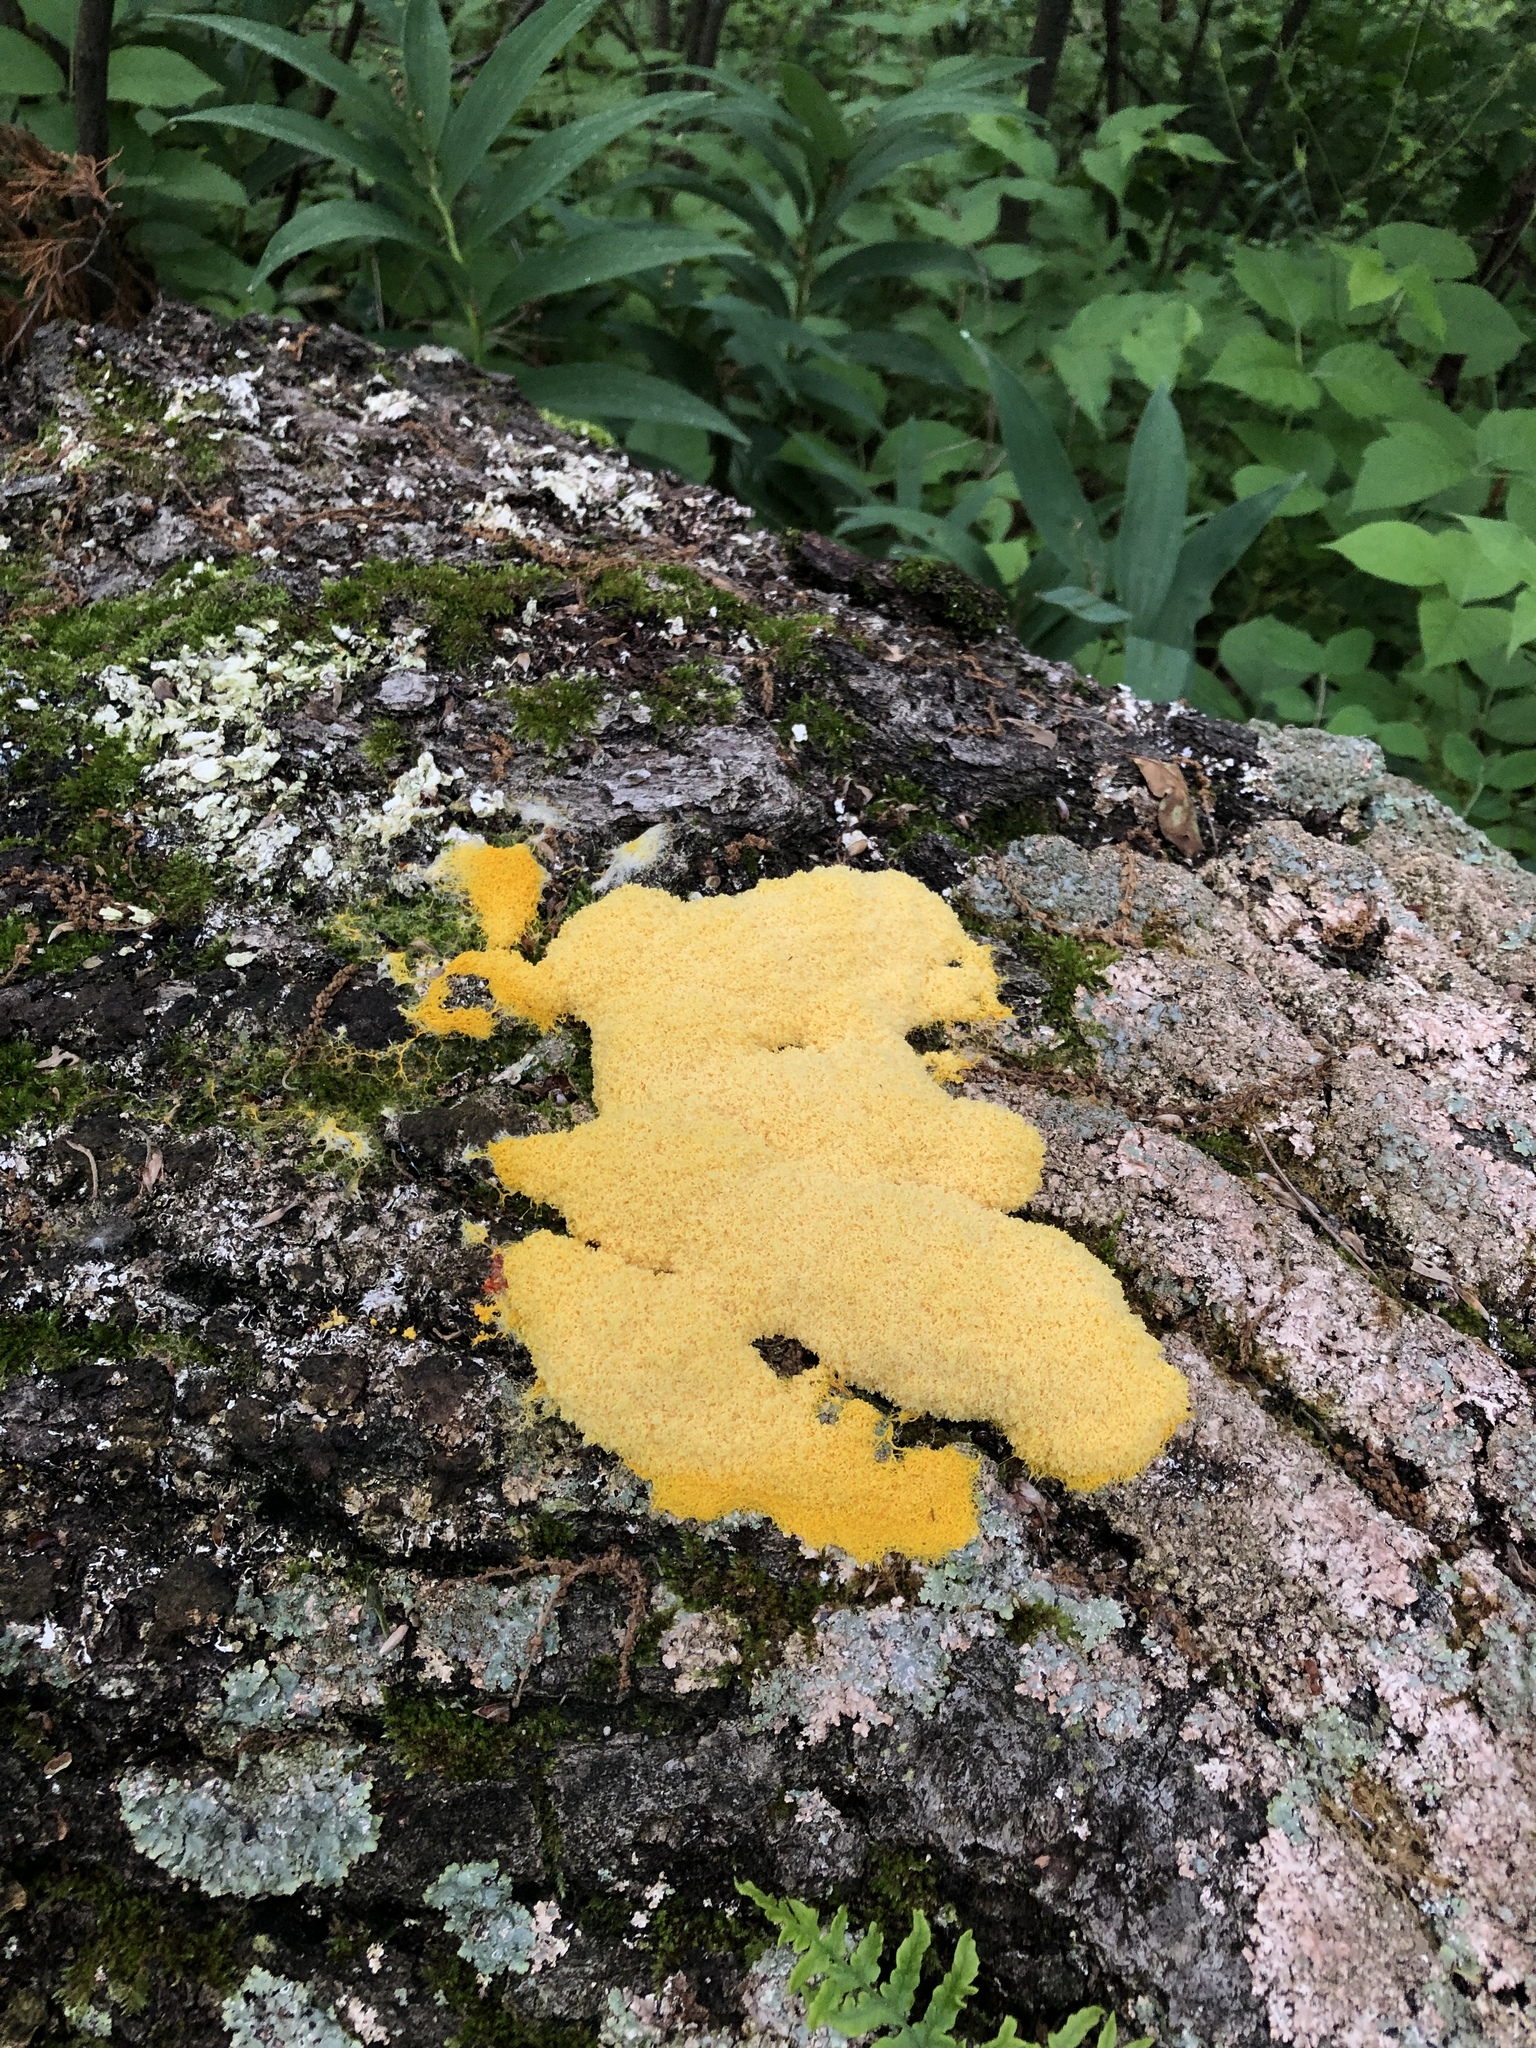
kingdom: Protozoa
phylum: Mycetozoa
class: Myxomycetes
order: Physarales
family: Physaraceae
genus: Fuligo
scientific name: Fuligo septica
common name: Dog vomit slime mold
